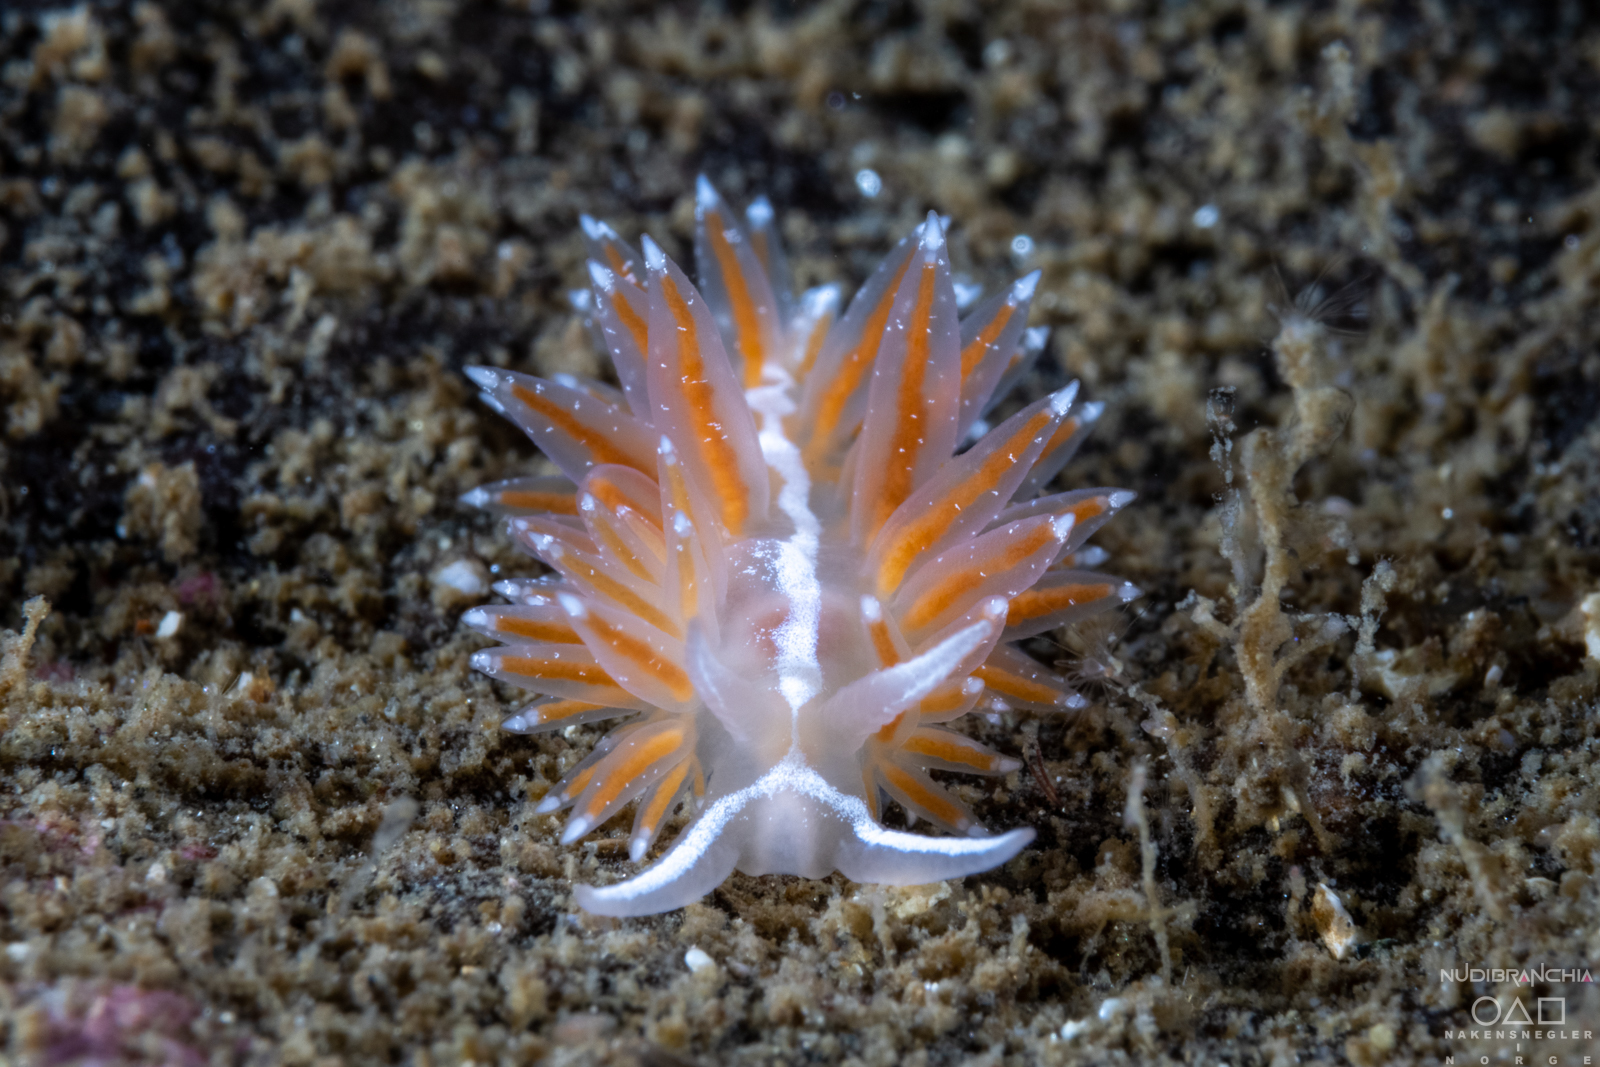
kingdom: Animalia
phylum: Mollusca
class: Gastropoda
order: Nudibranchia
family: Coryphellidae
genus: Coryphella
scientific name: Coryphella monicae
